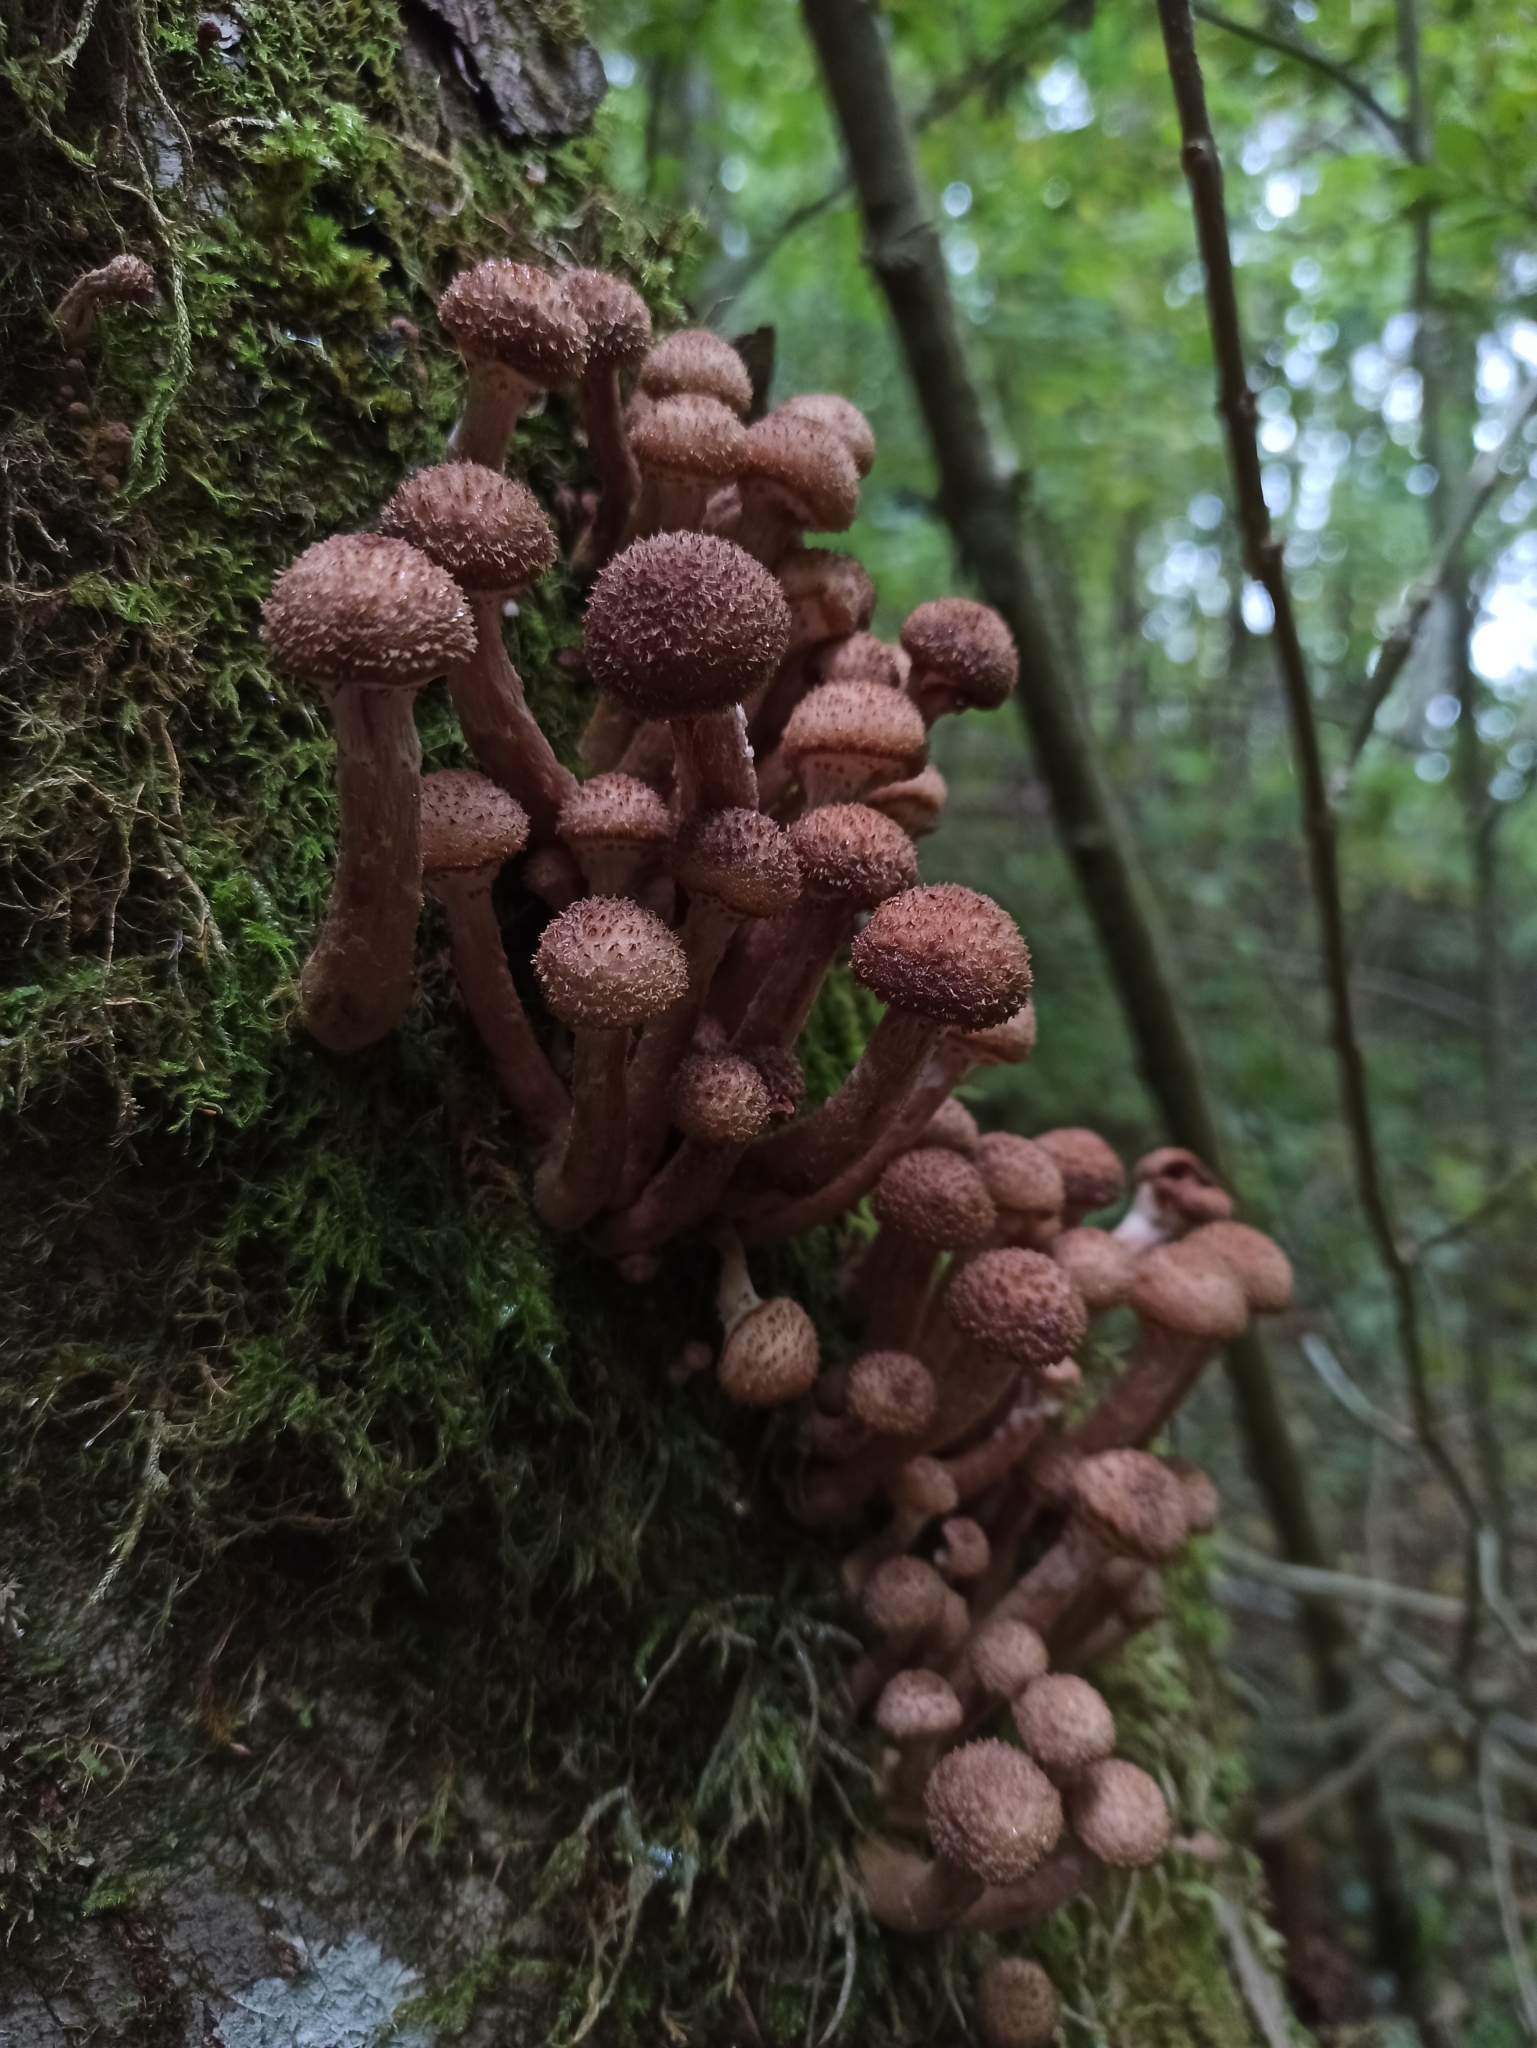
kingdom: Fungi
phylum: Basidiomycota
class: Agaricomycetes
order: Agaricales
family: Physalacriaceae
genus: Armillaria
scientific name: Armillaria mellea
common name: Honey fungus
